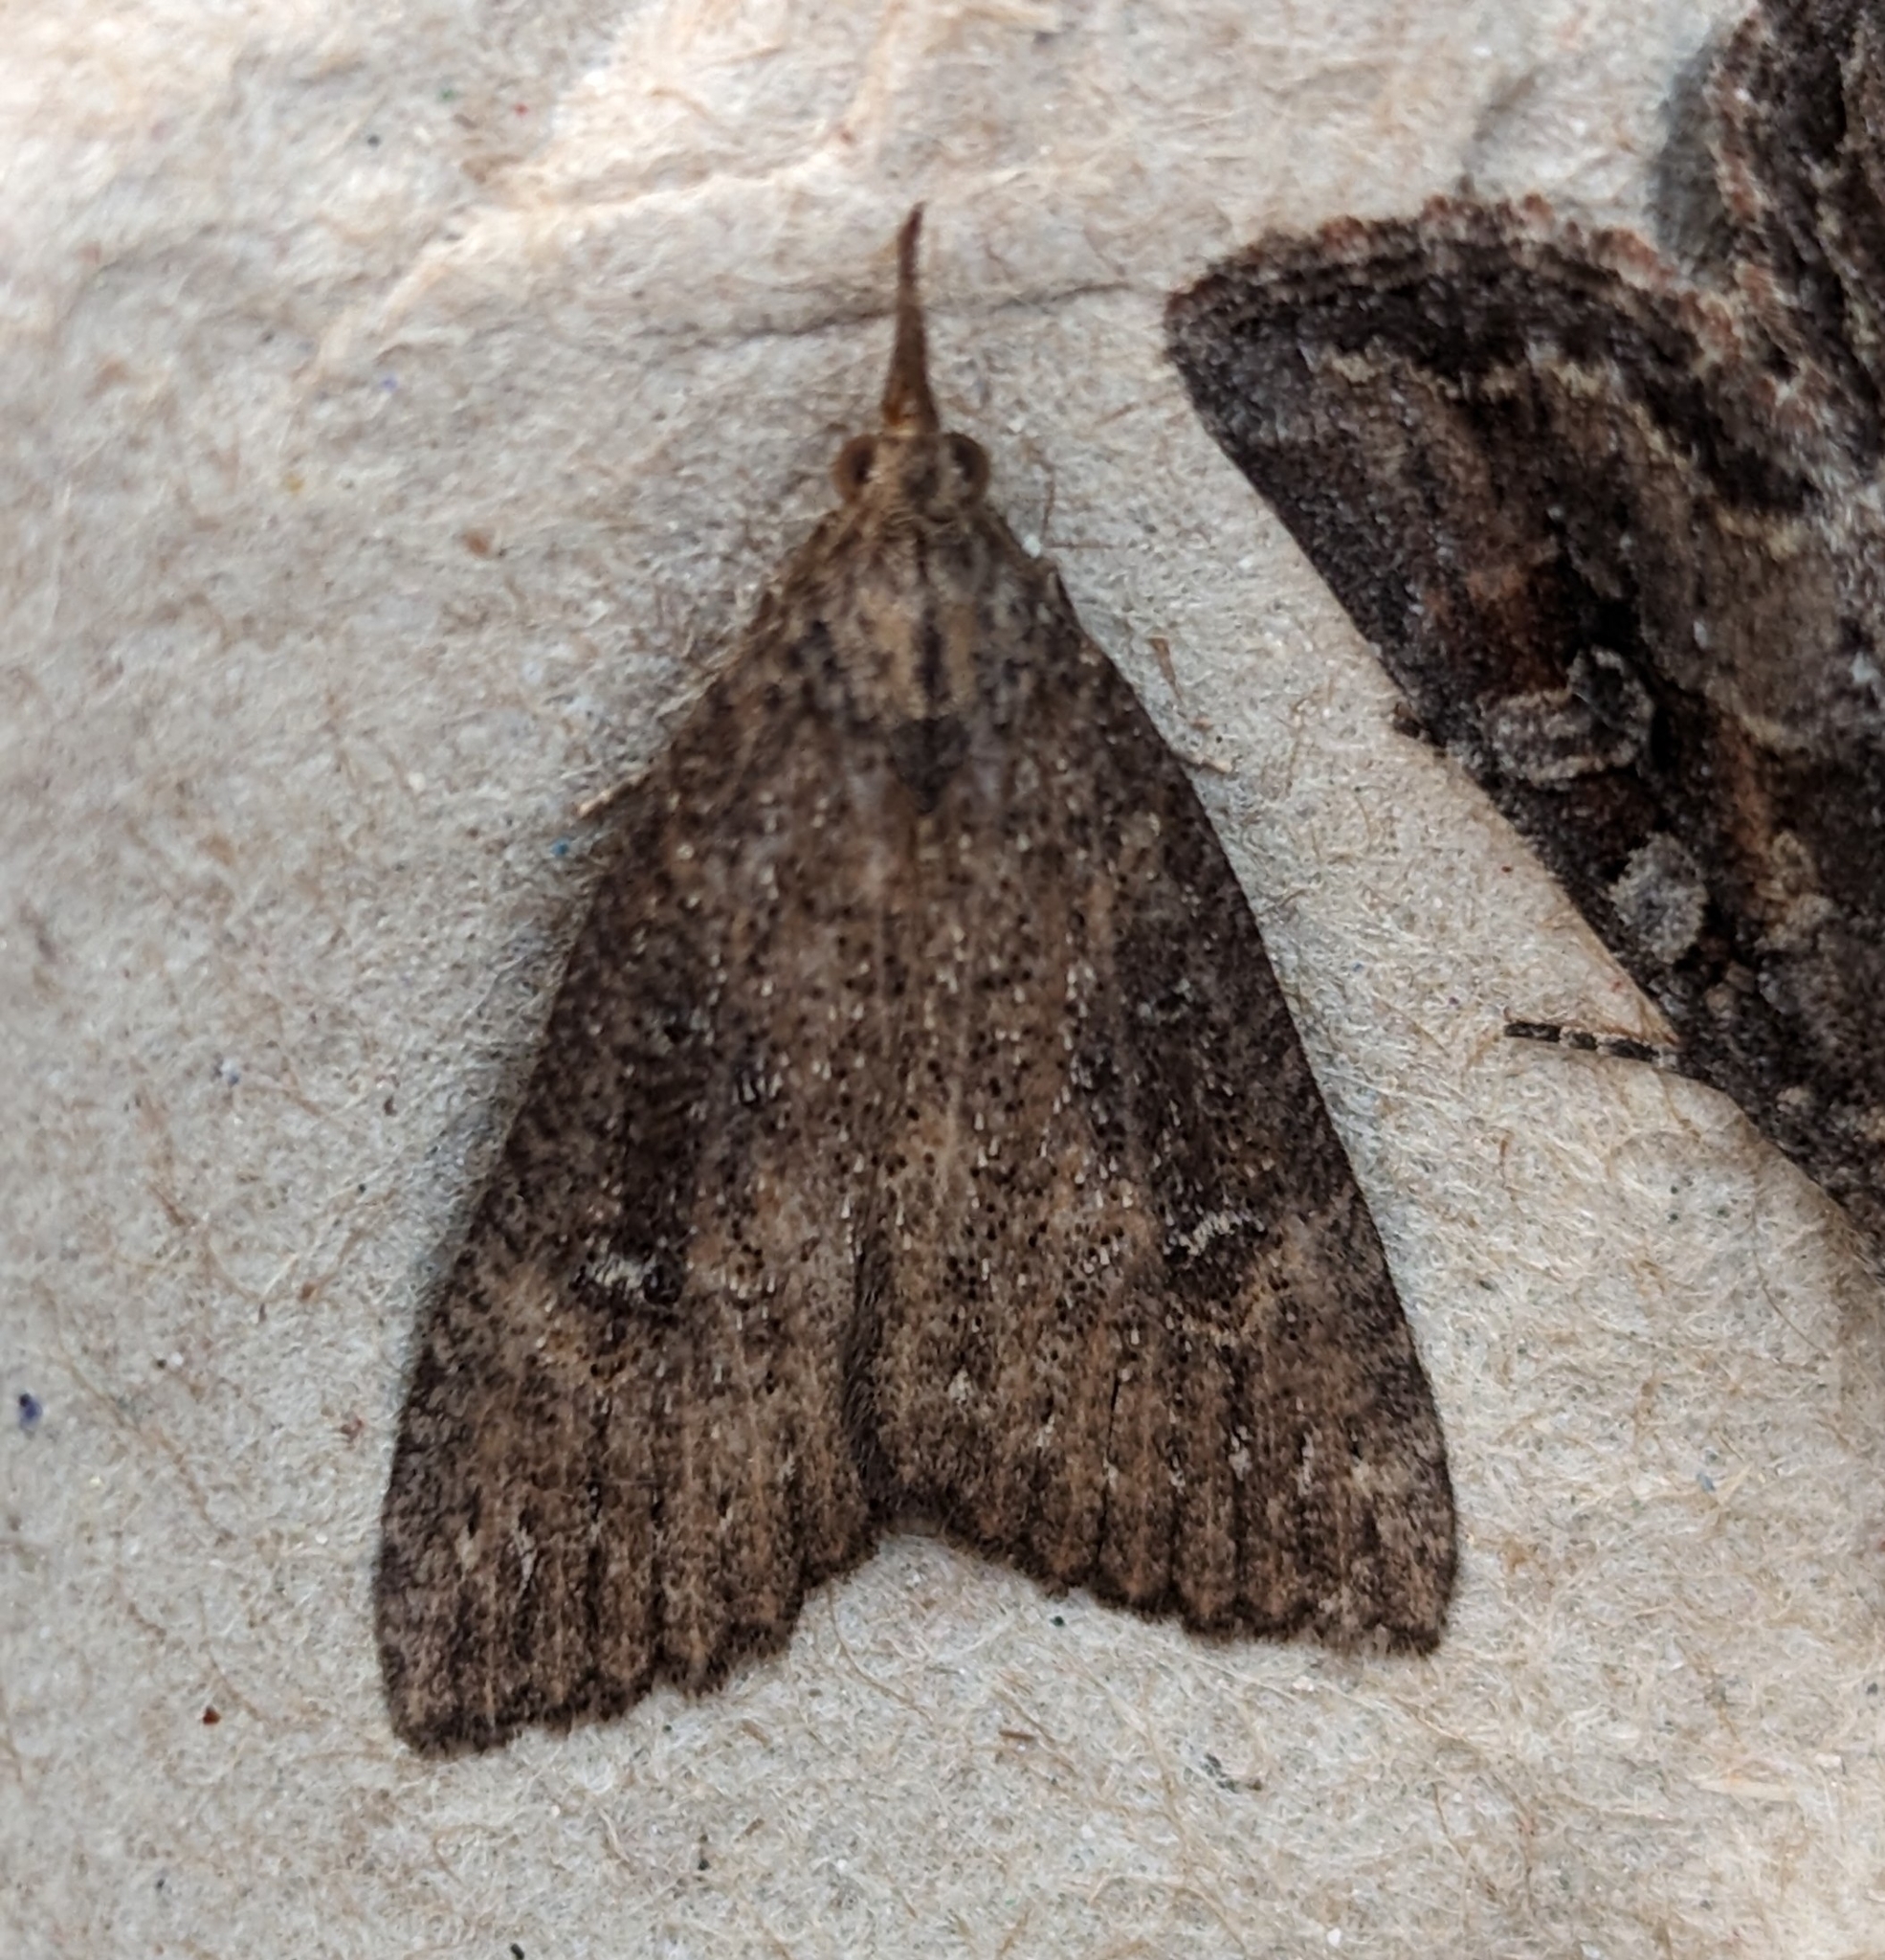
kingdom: Animalia
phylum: Arthropoda
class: Insecta
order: Lepidoptera
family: Erebidae
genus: Hypena
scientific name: Hypena humuli
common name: Hop vine snout
